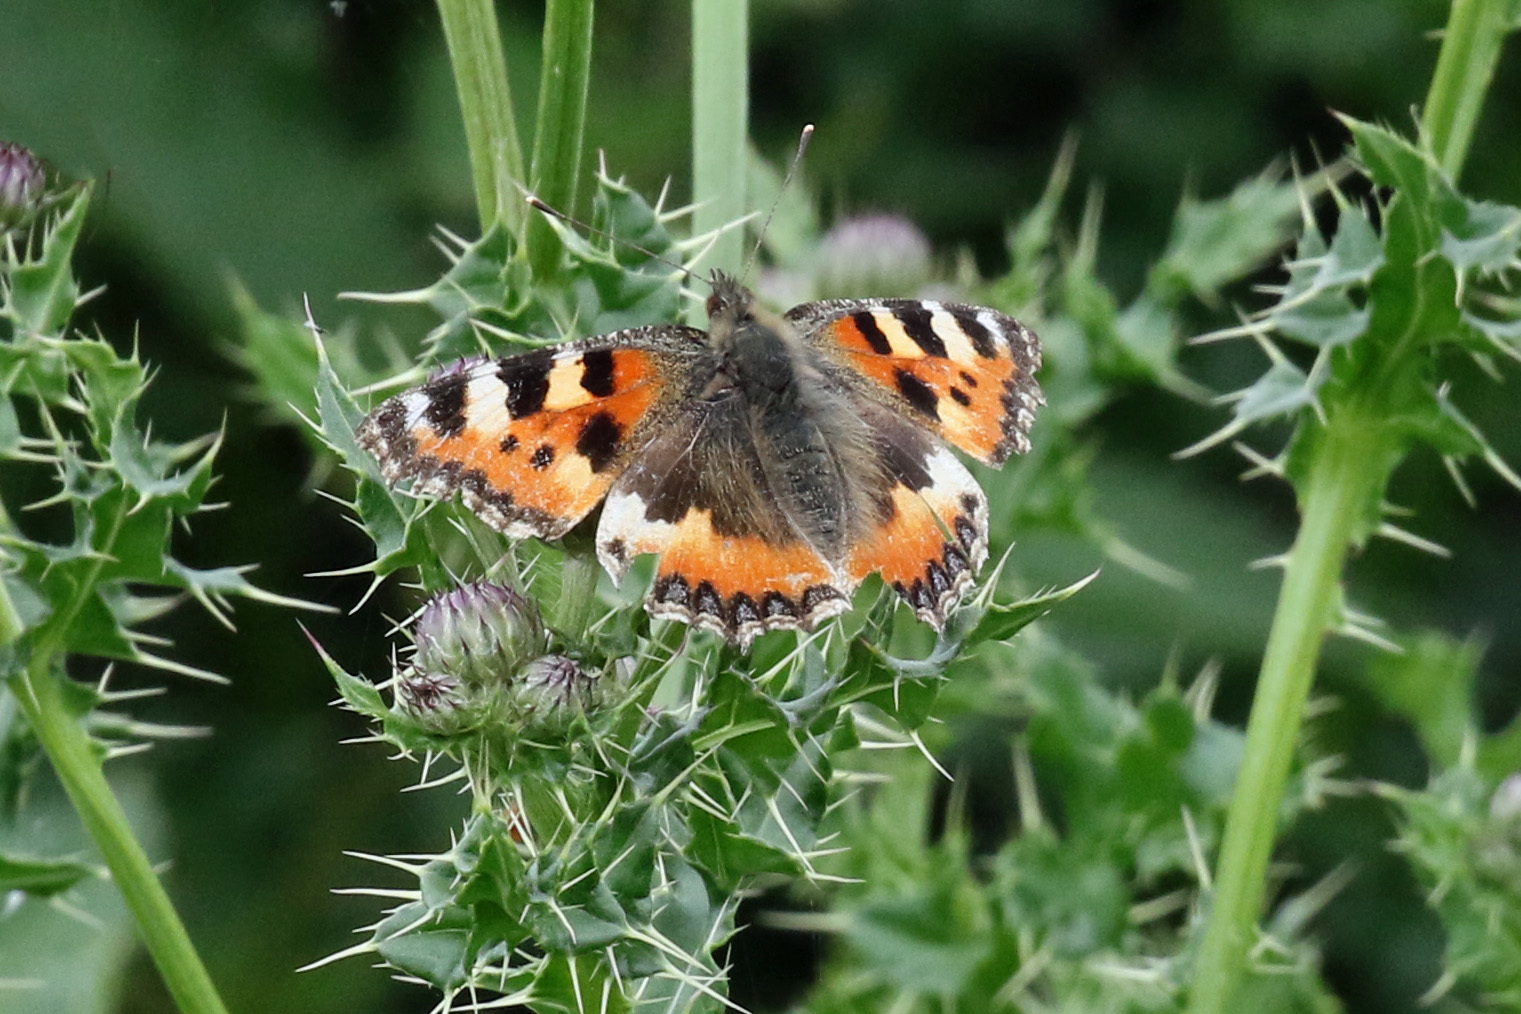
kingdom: Animalia
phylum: Arthropoda
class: Insecta
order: Lepidoptera
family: Nymphalidae
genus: Aglais
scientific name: Aglais urticae
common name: Small tortoiseshell
